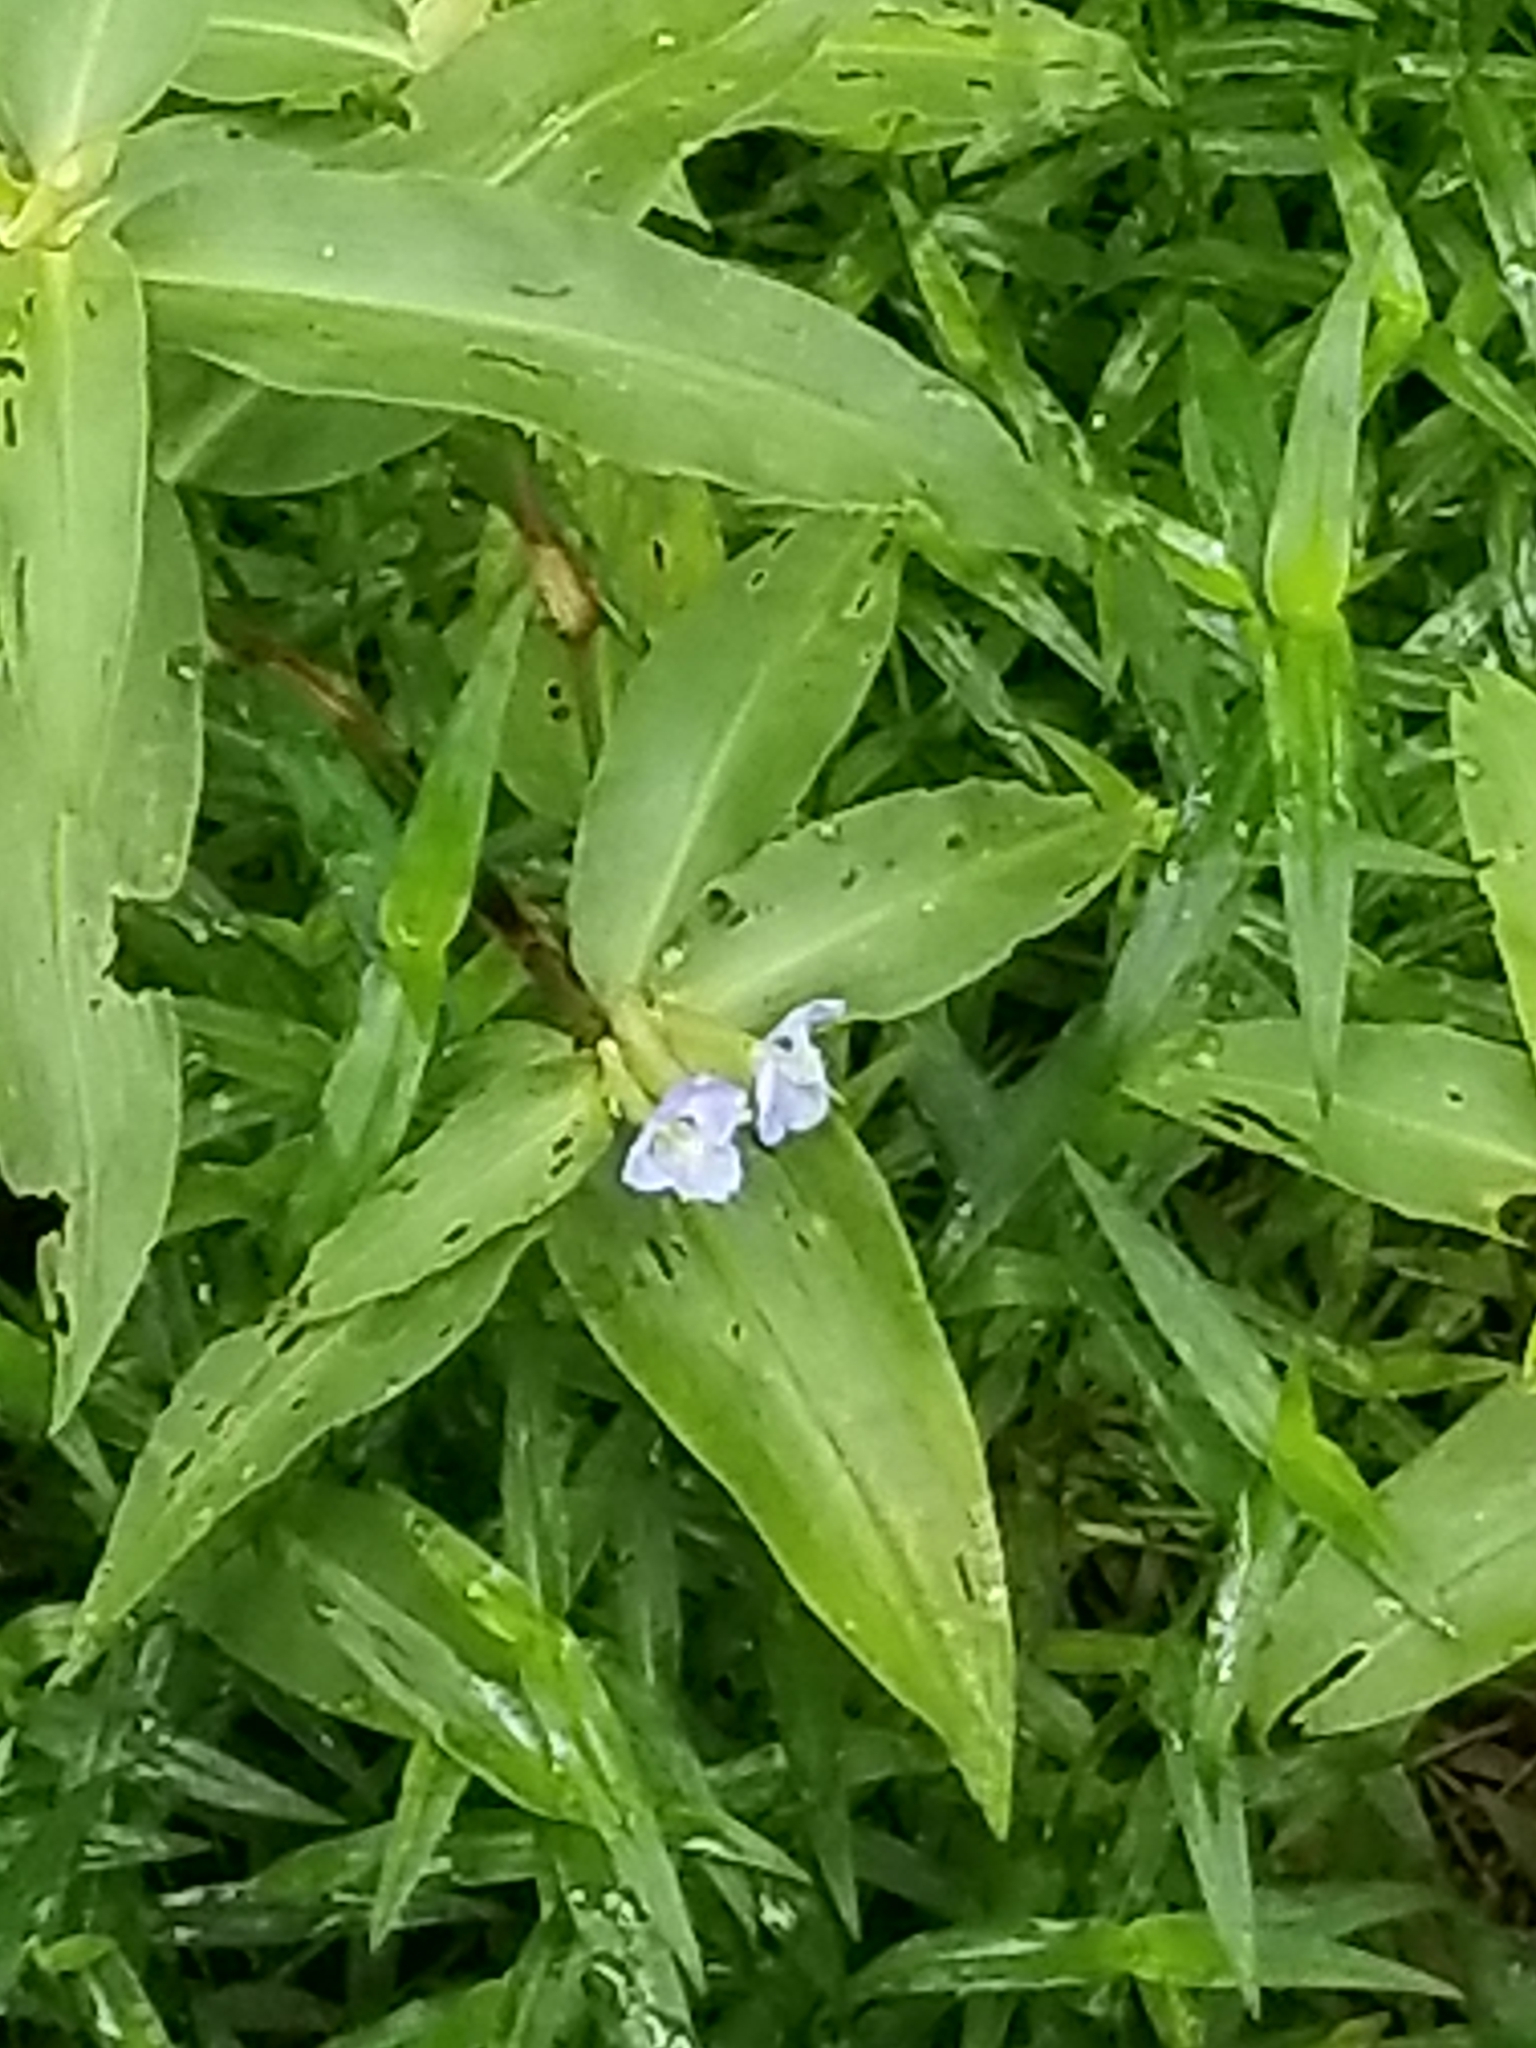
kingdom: Plantae
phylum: Tracheophyta
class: Liliopsida
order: Commelinales
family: Commelinaceae
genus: Commelina
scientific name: Commelina virginica
